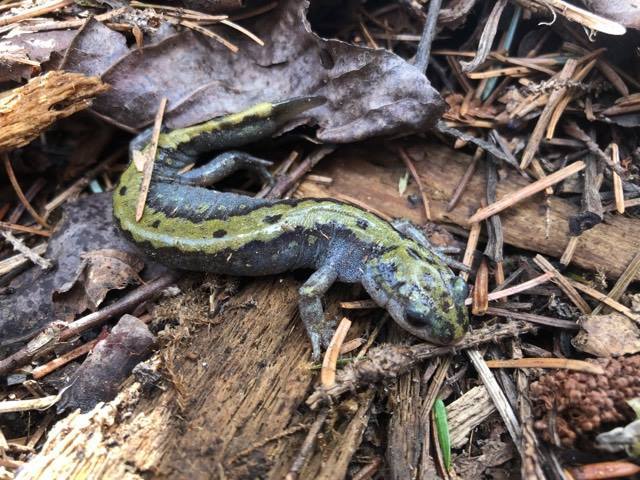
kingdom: Animalia
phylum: Chordata
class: Amphibia
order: Caudata
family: Ambystomatidae
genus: Ambystoma
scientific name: Ambystoma macrodactylum
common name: Long-toed salamander
